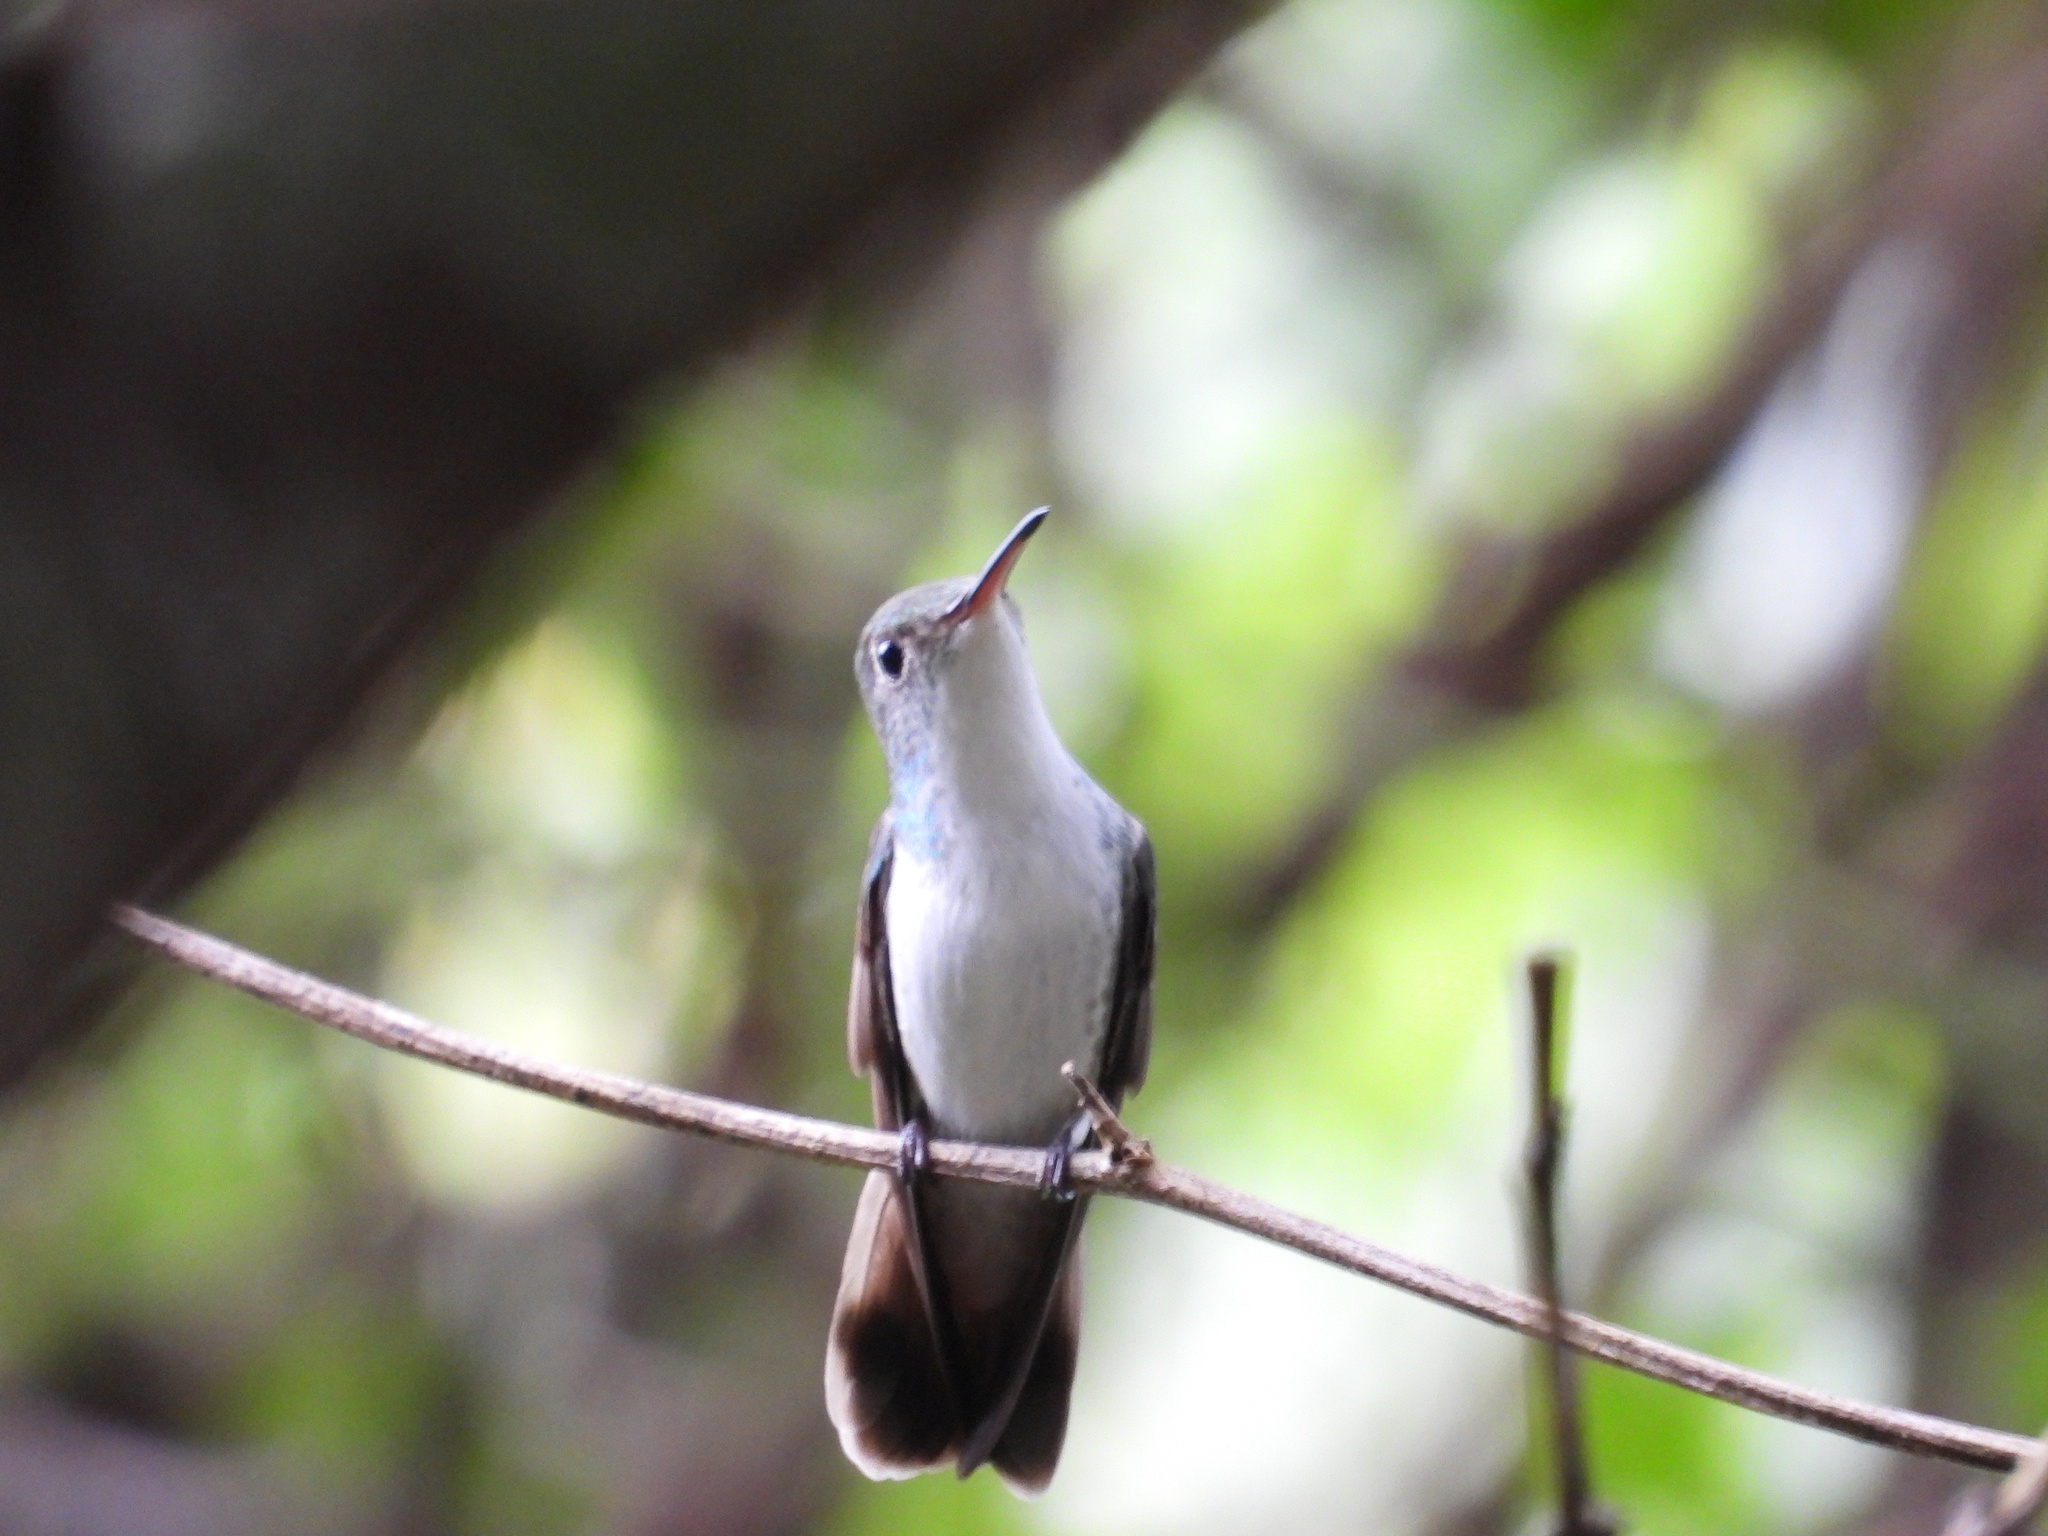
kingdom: Animalia
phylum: Chordata
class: Aves
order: Apodiformes
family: Trochilidae
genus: Chlorestes
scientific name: Chlorestes candida
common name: White-bellied emerald
